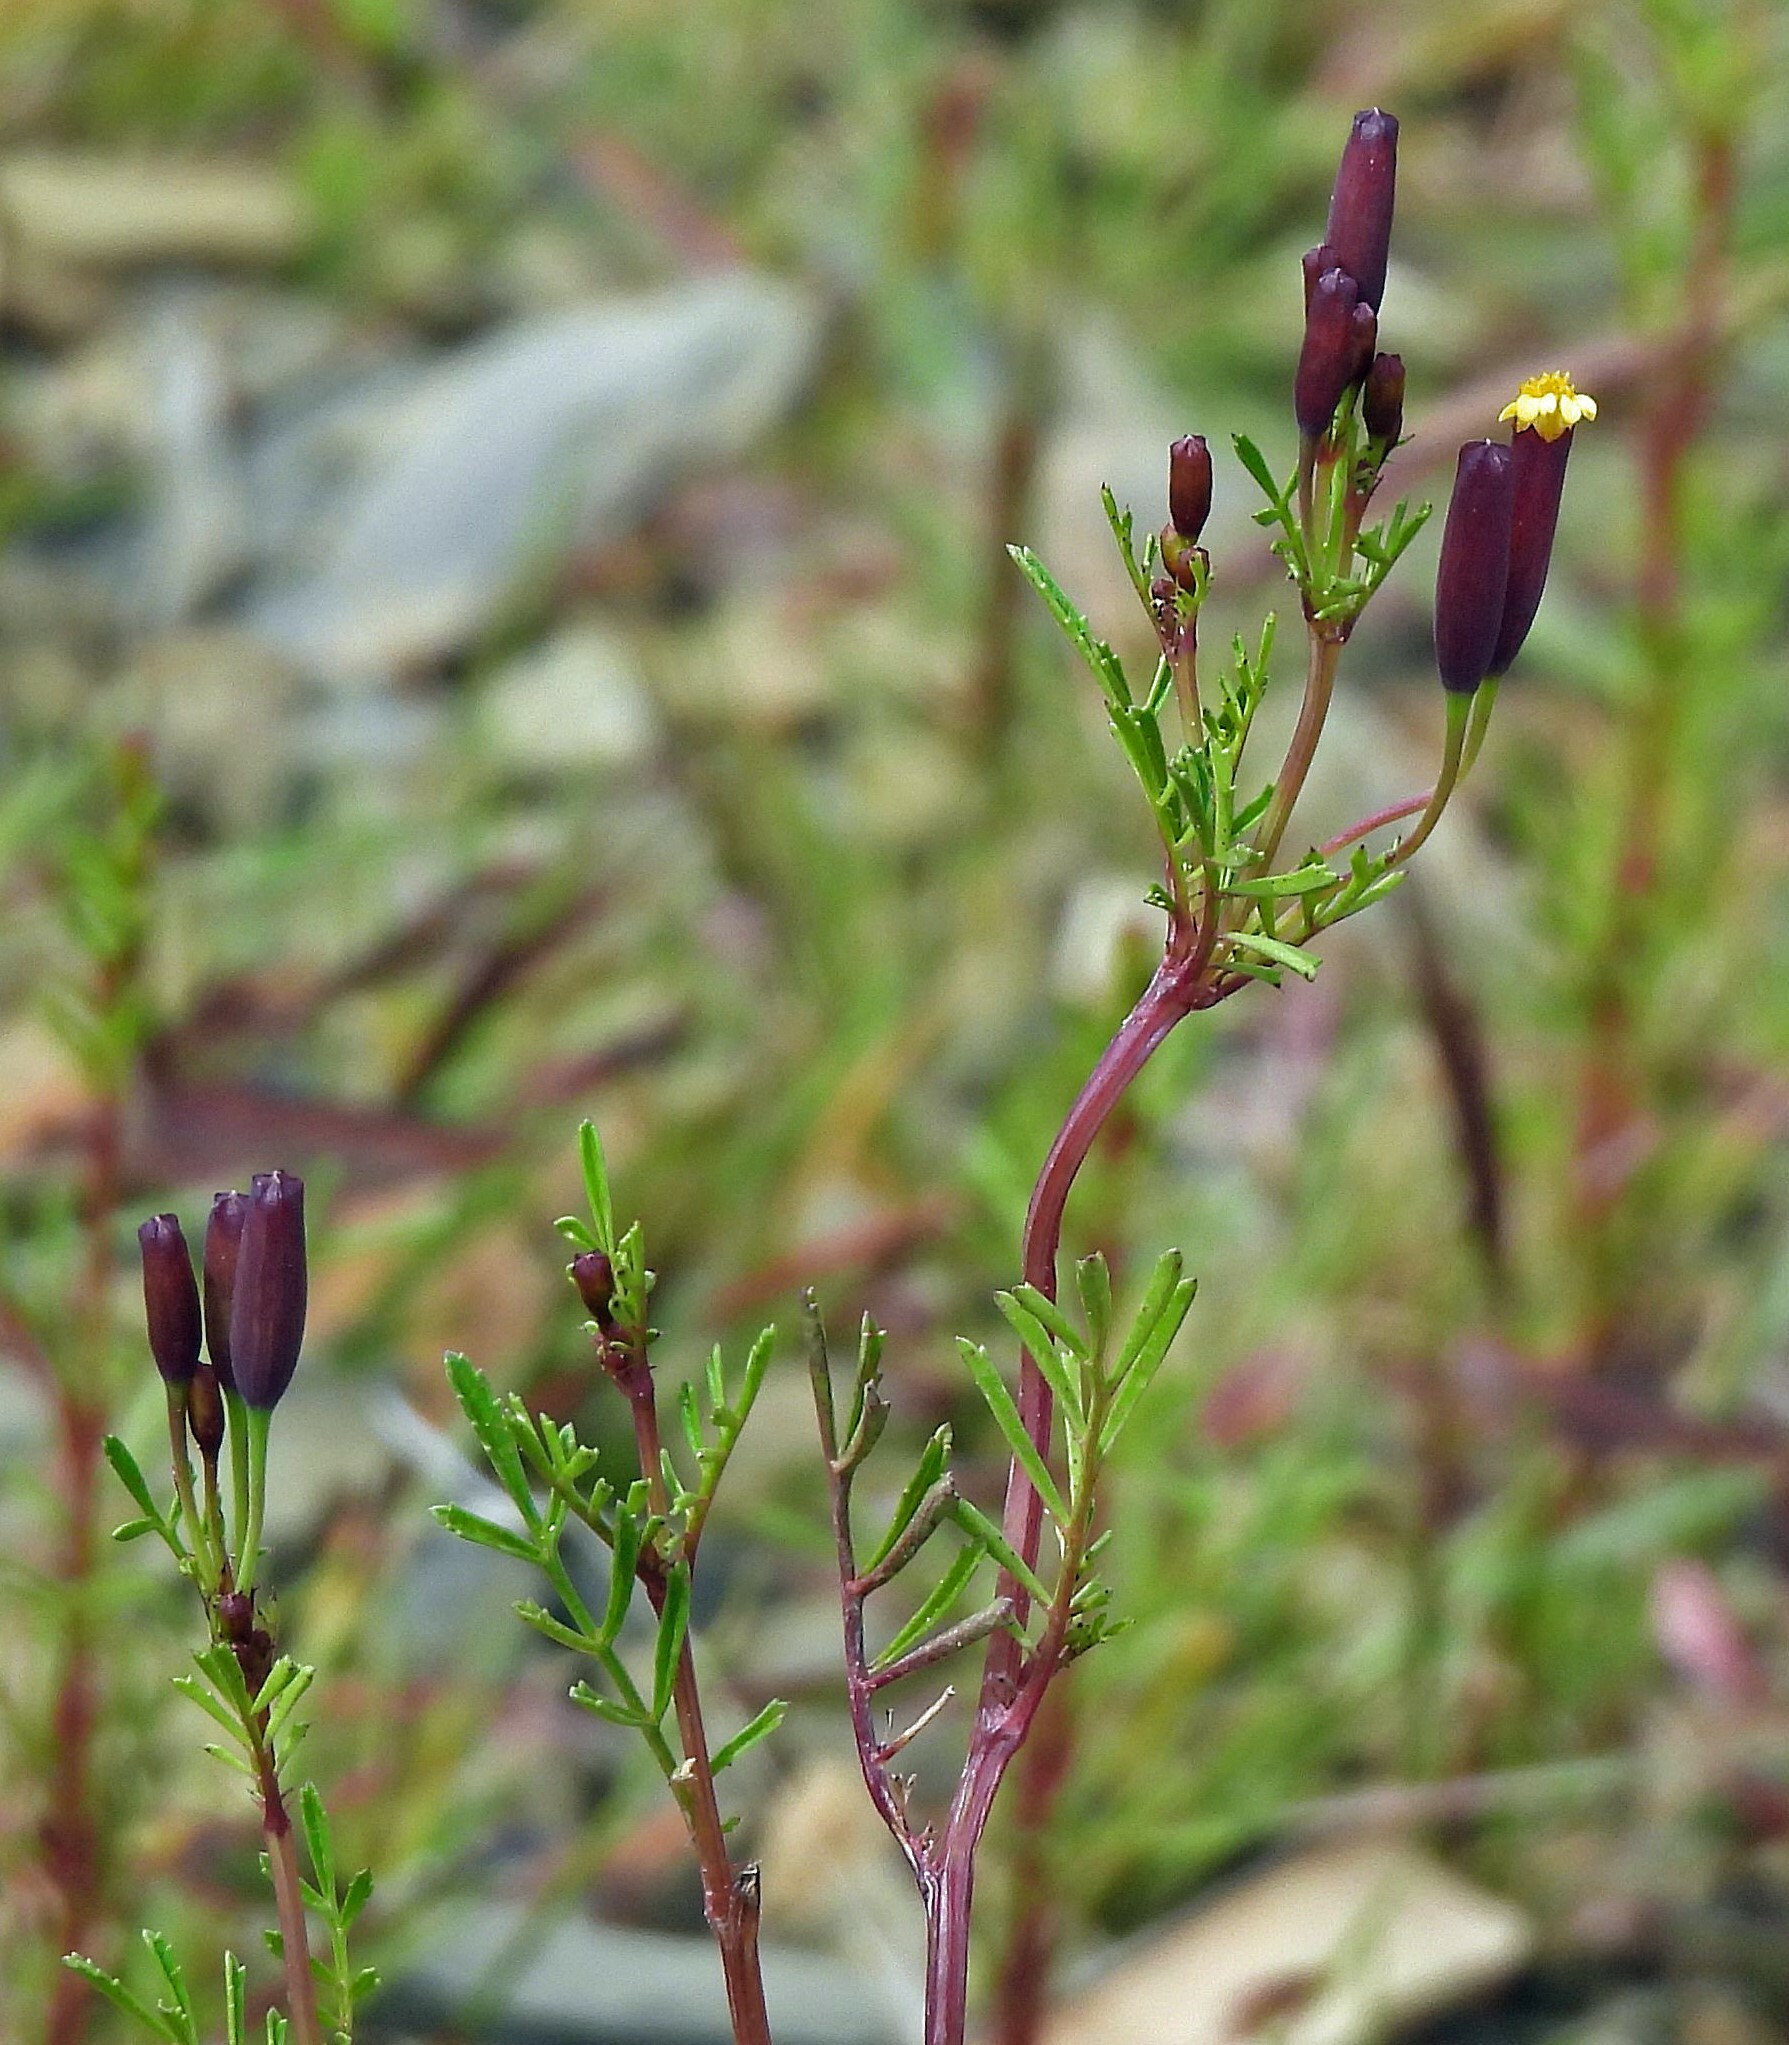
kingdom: Plantae
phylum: Tracheophyta
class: Magnoliopsida
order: Asterales
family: Asteraceae
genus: Tagetes
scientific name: Tagetes multiflora
